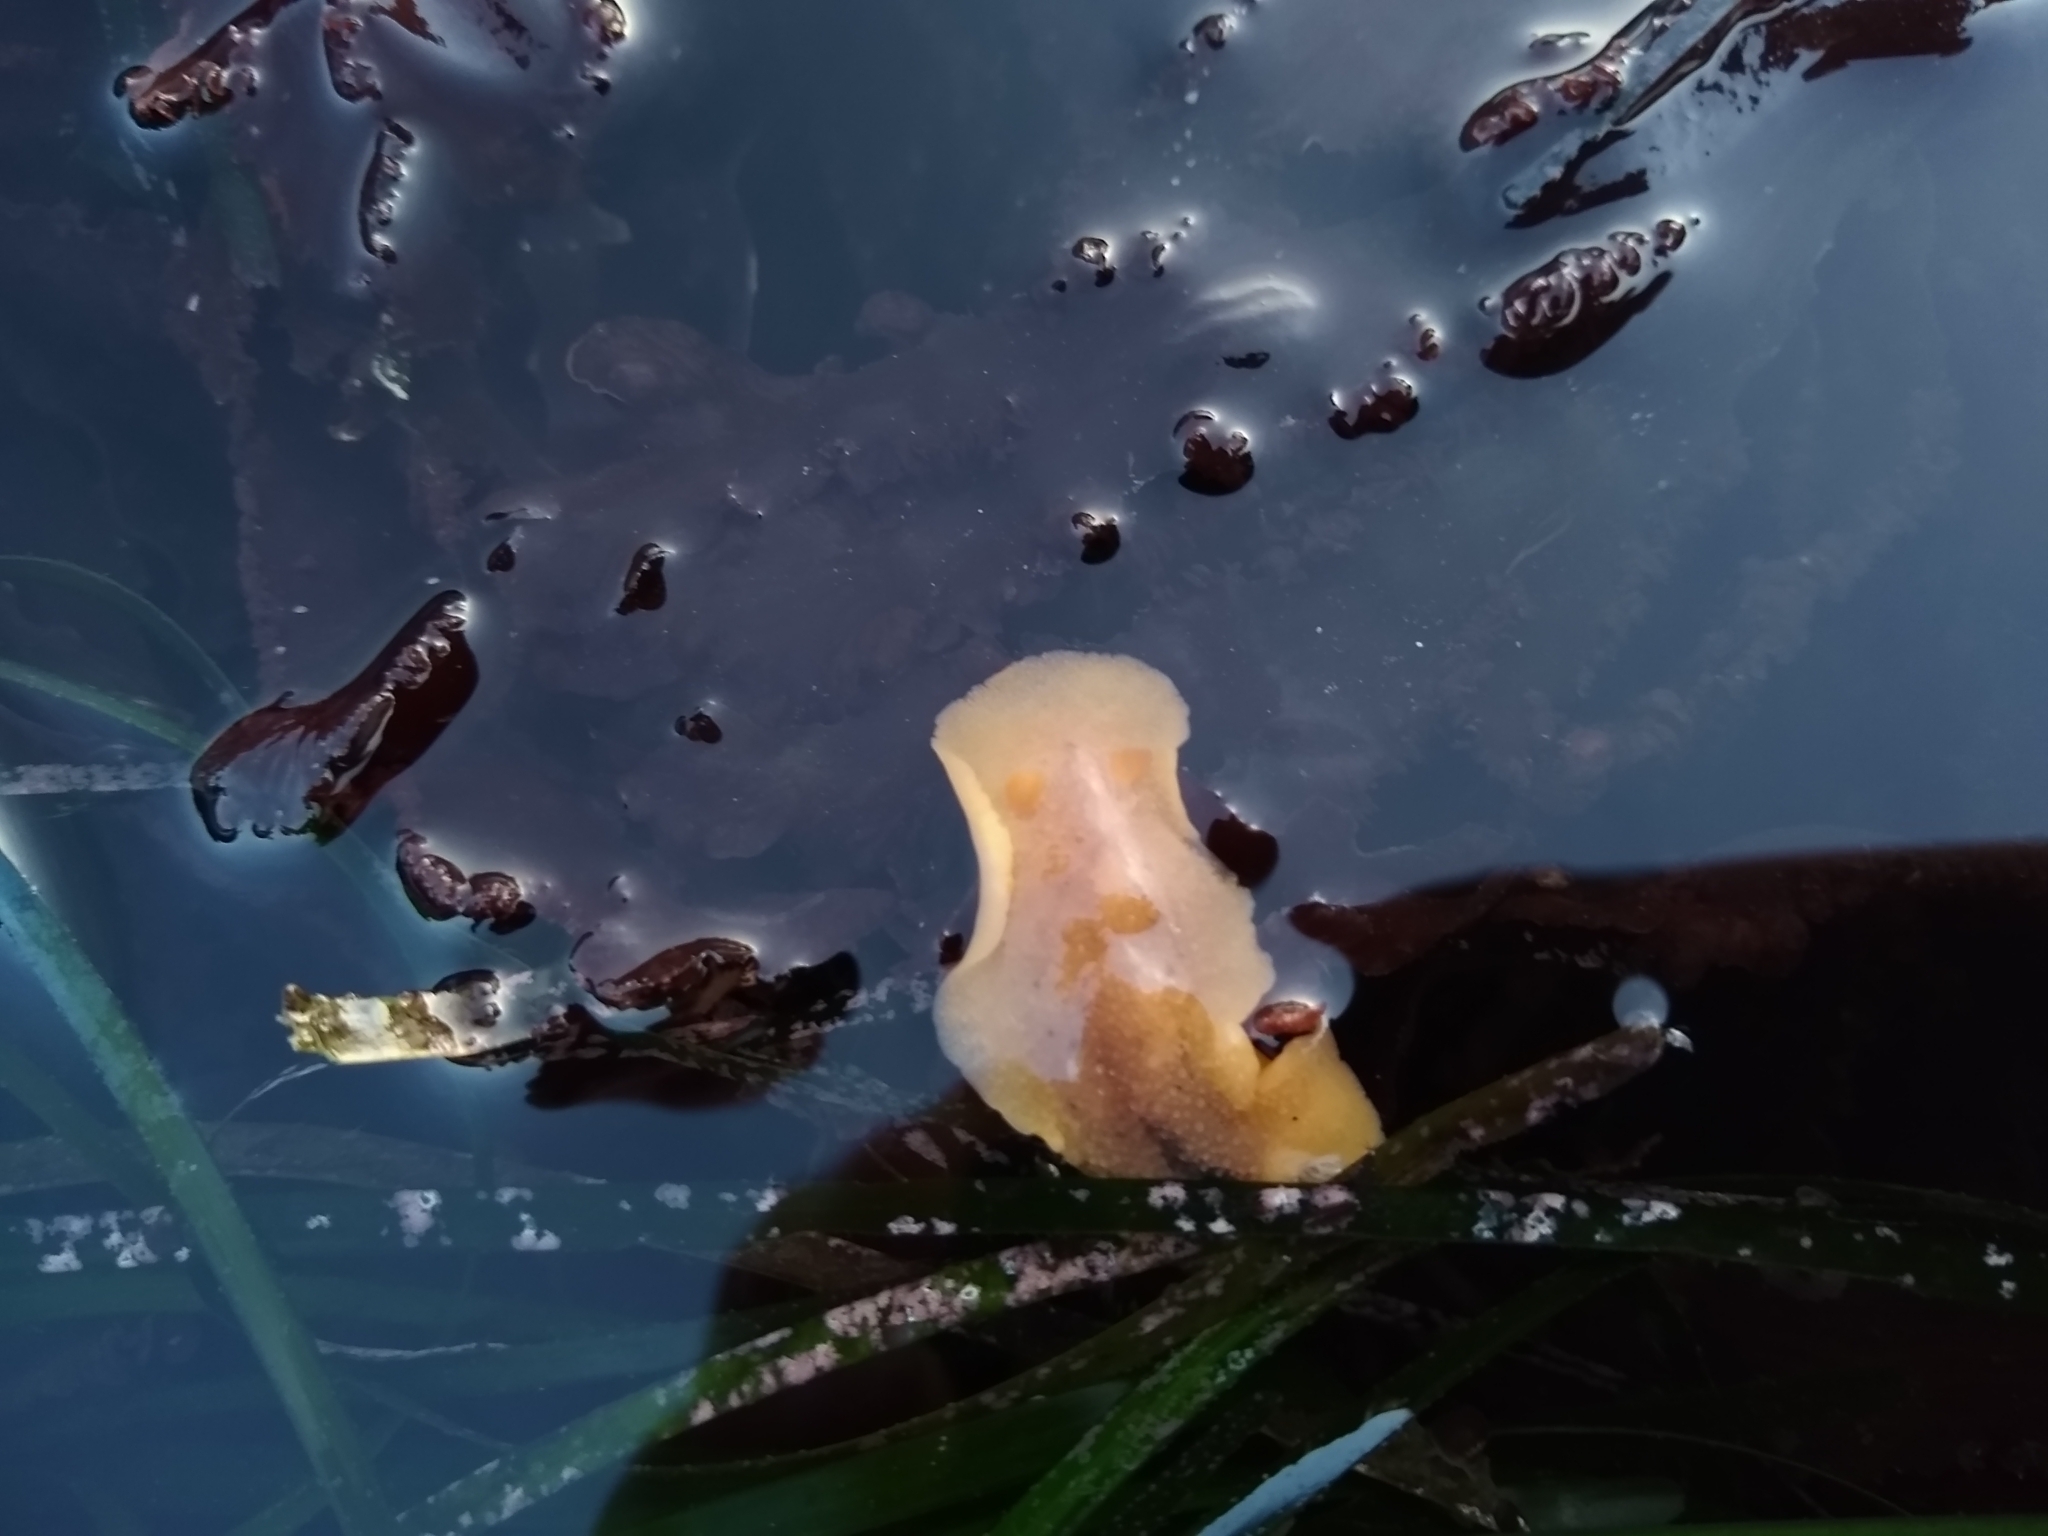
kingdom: Animalia
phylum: Mollusca
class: Gastropoda
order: Nudibranchia
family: Discodorididae
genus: Geitodoris
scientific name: Geitodoris heathi
